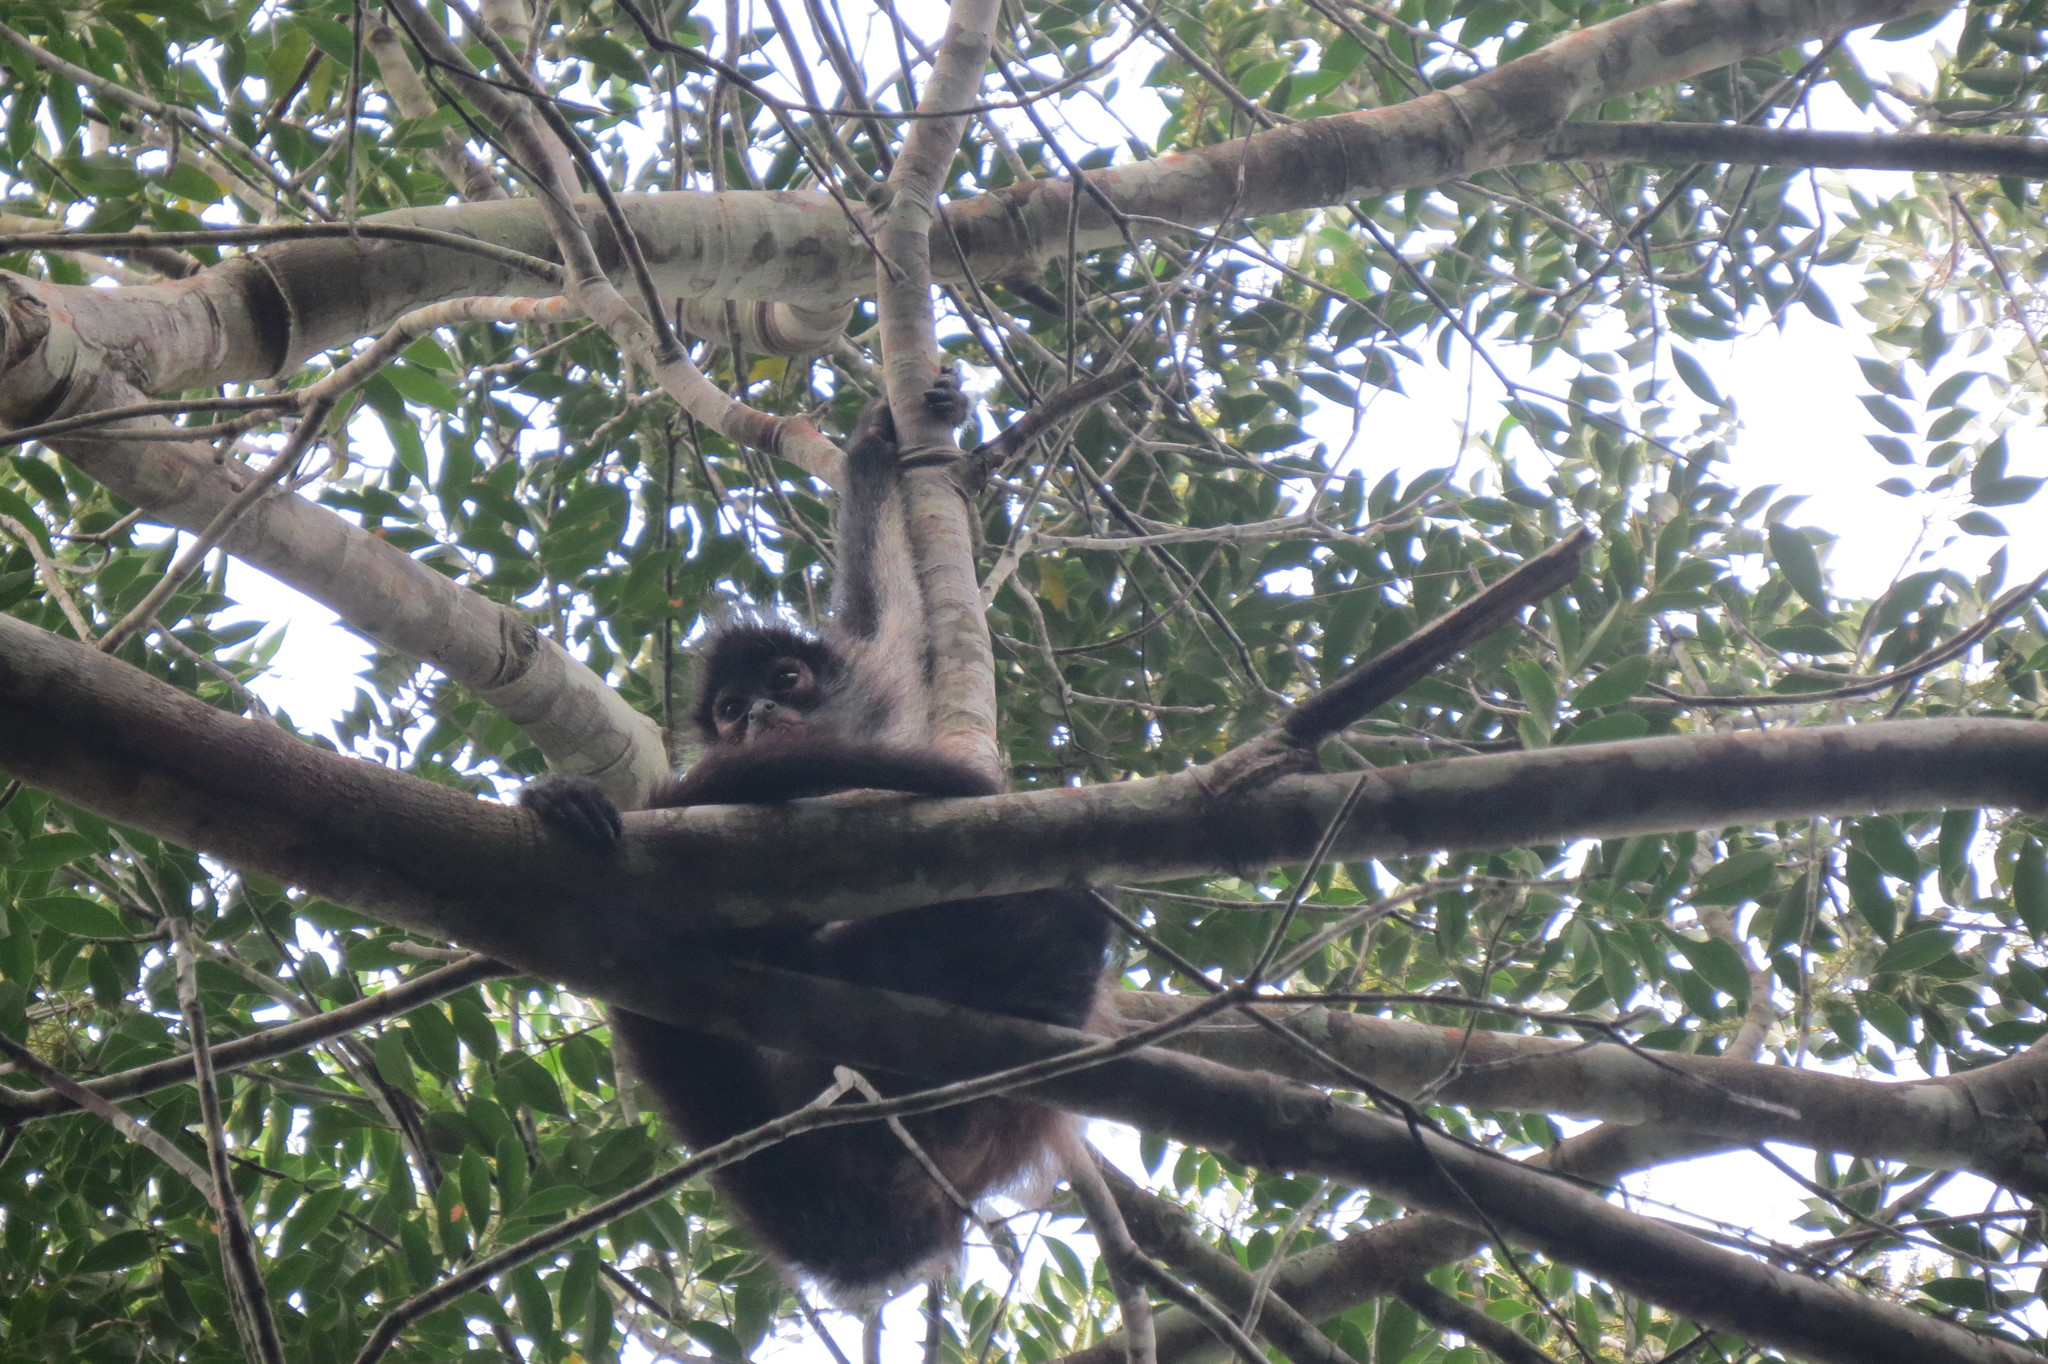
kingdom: Animalia
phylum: Chordata
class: Mammalia
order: Primates
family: Atelidae
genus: Ateles
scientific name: Ateles geoffroyi
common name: Black-handed spider monkey
